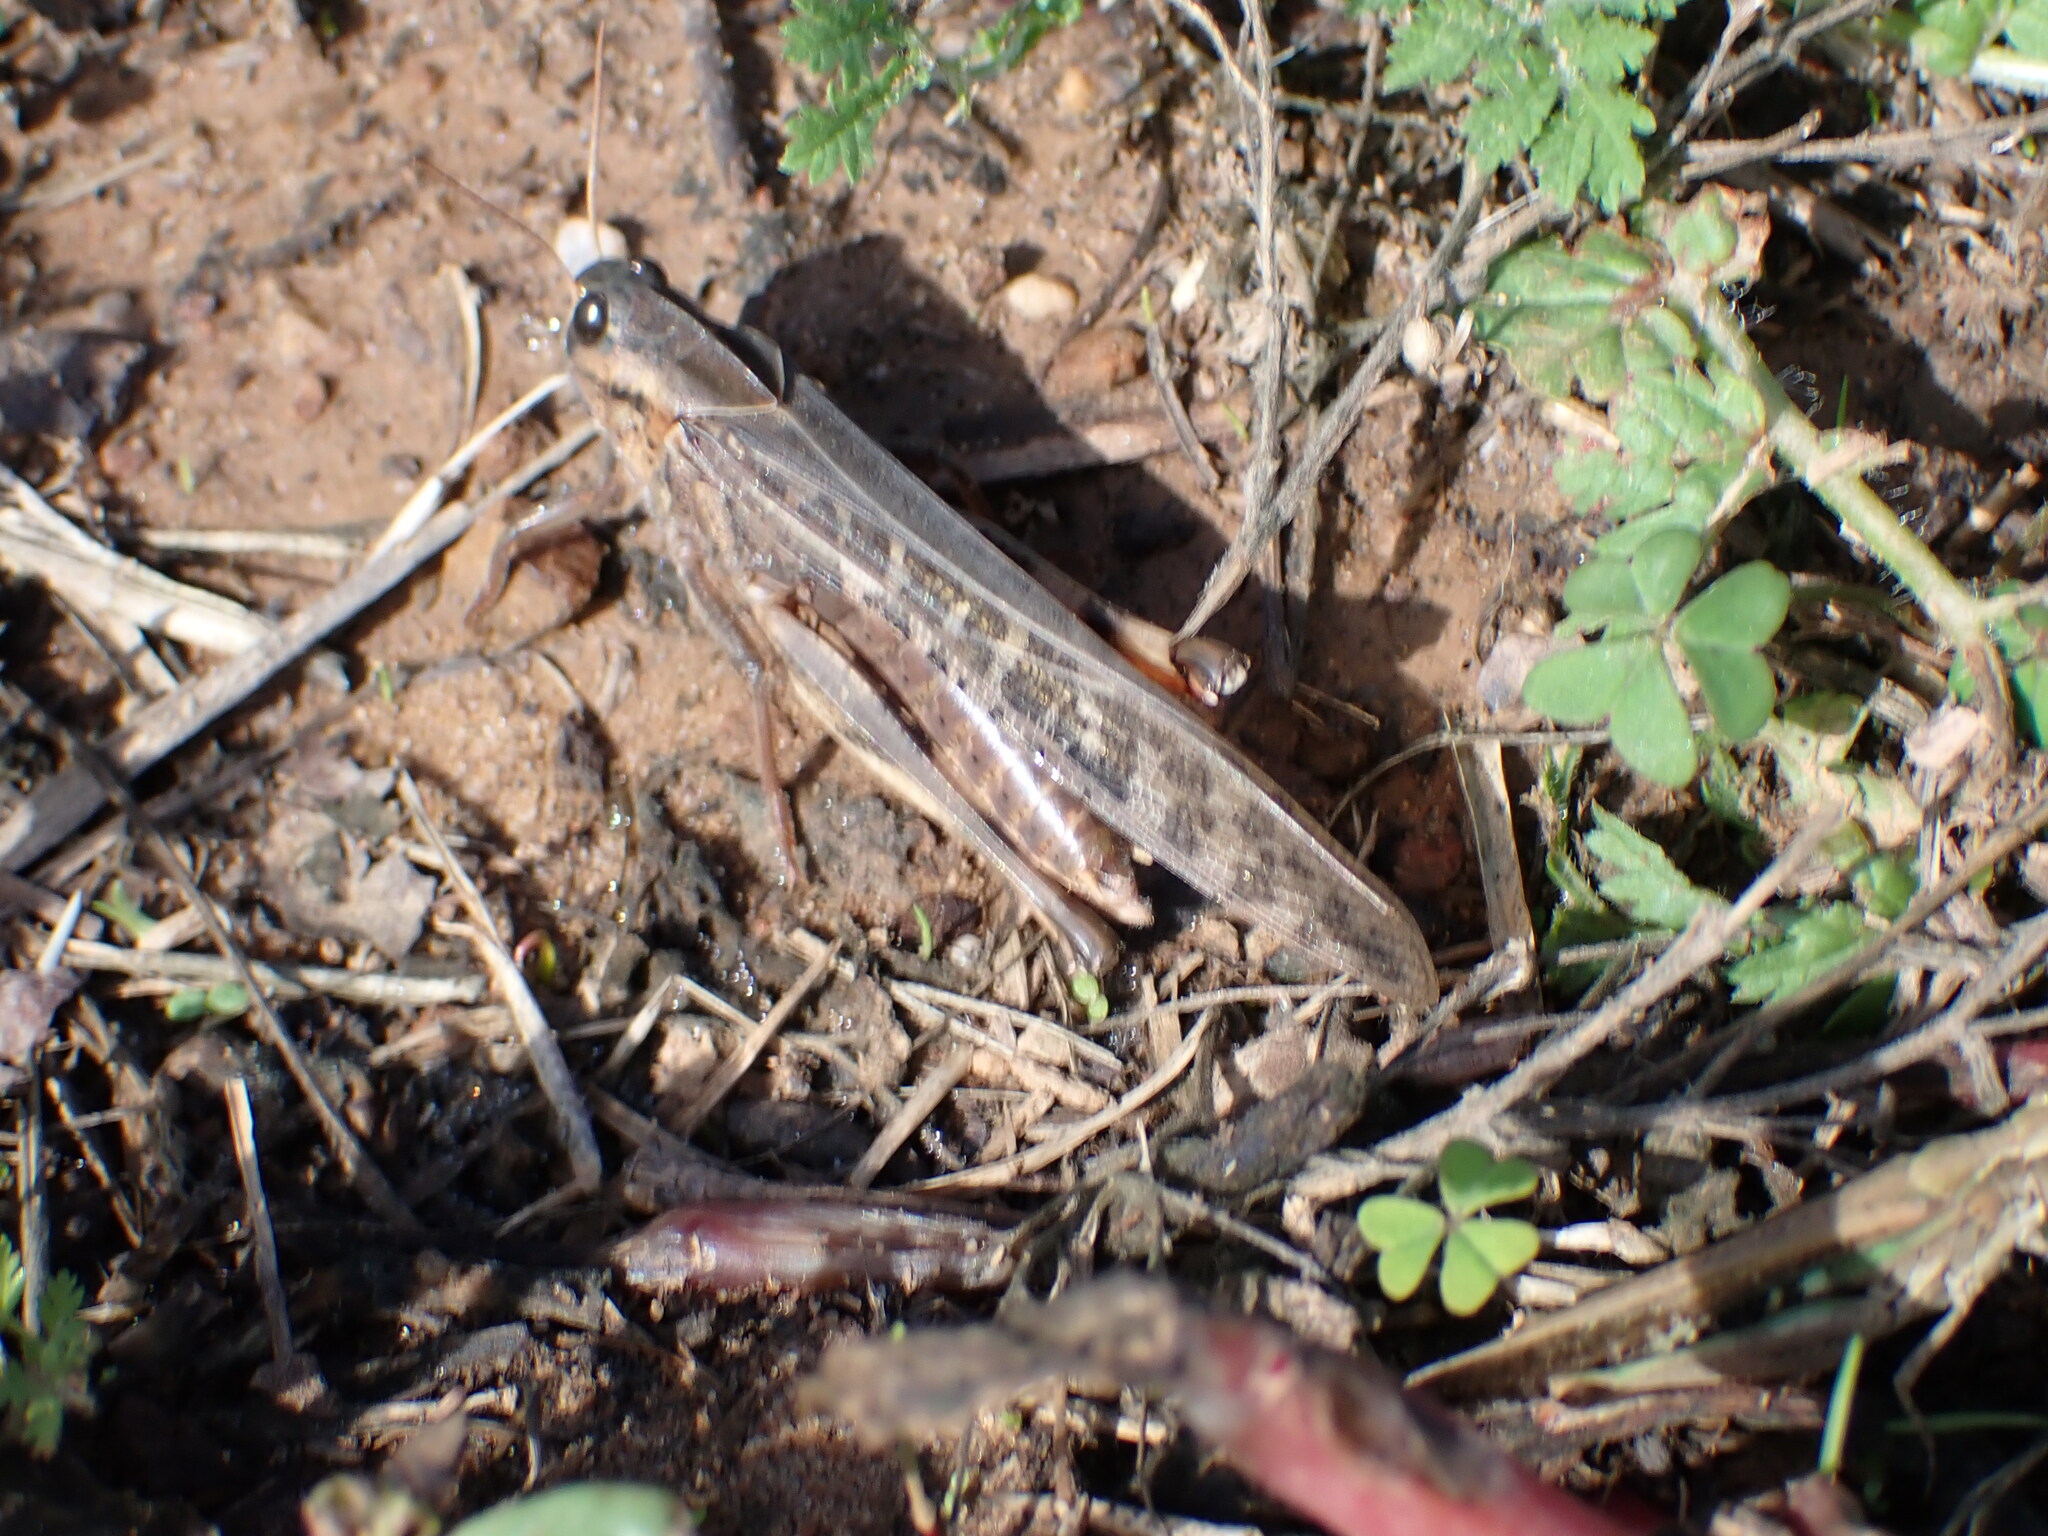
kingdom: Animalia
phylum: Arthropoda
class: Insecta
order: Orthoptera
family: Acrididae
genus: Locusta
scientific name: Locusta migratoria
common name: Migratory locust
